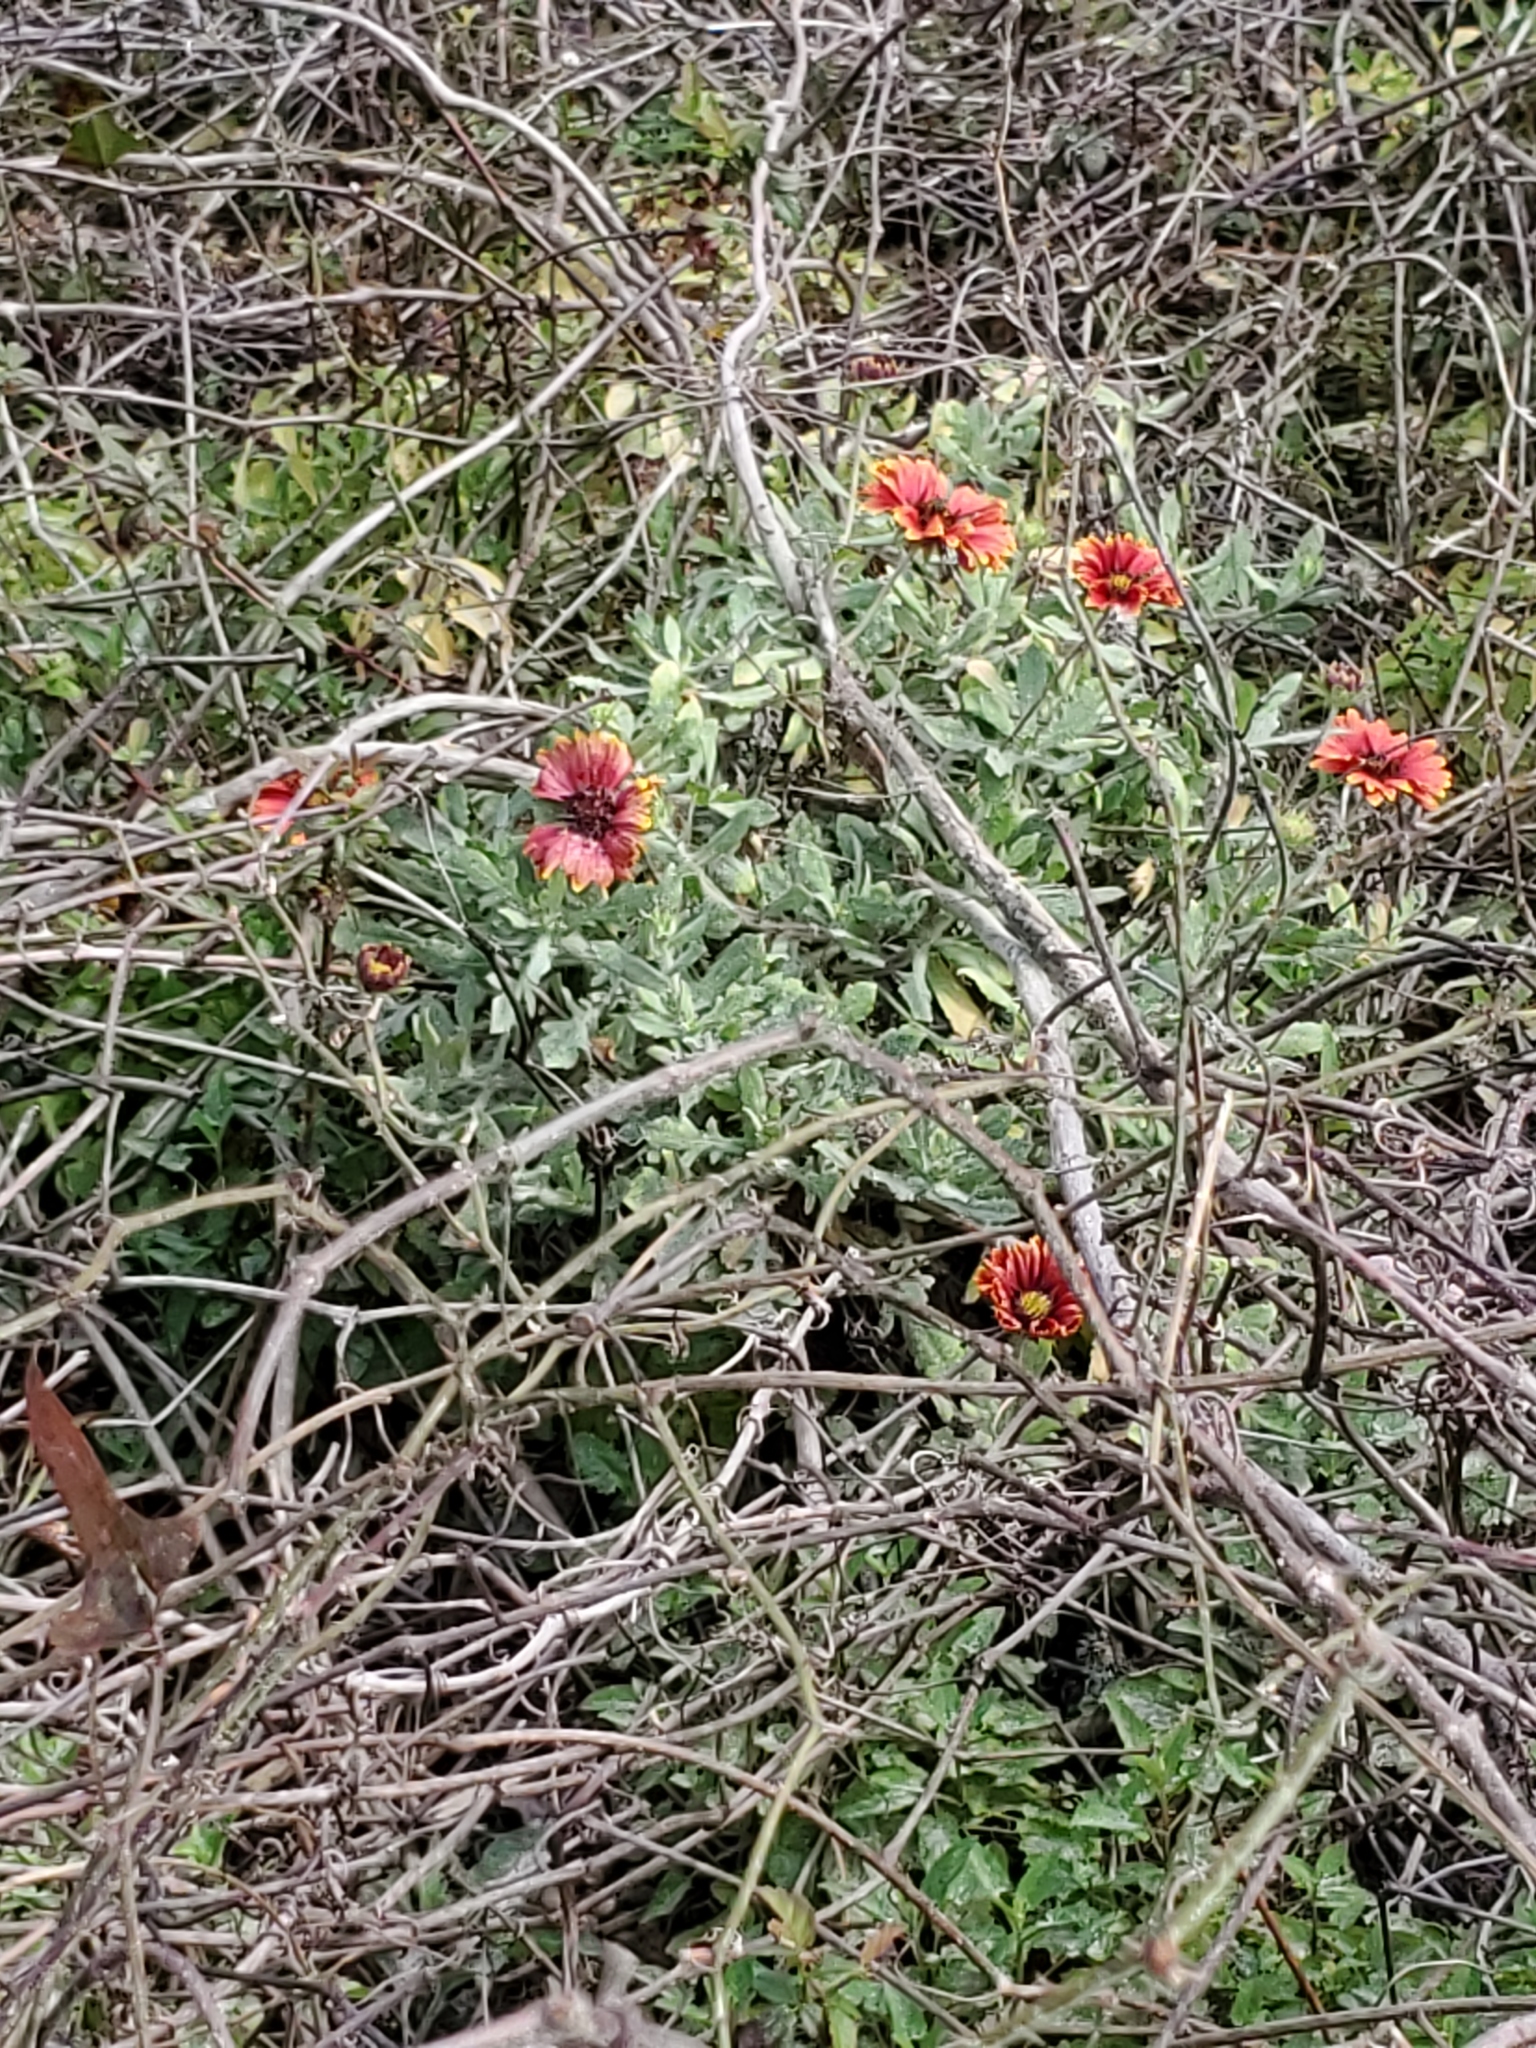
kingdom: Plantae
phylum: Tracheophyta
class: Magnoliopsida
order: Asterales
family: Asteraceae
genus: Gaillardia
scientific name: Gaillardia pulchella
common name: Firewheel
